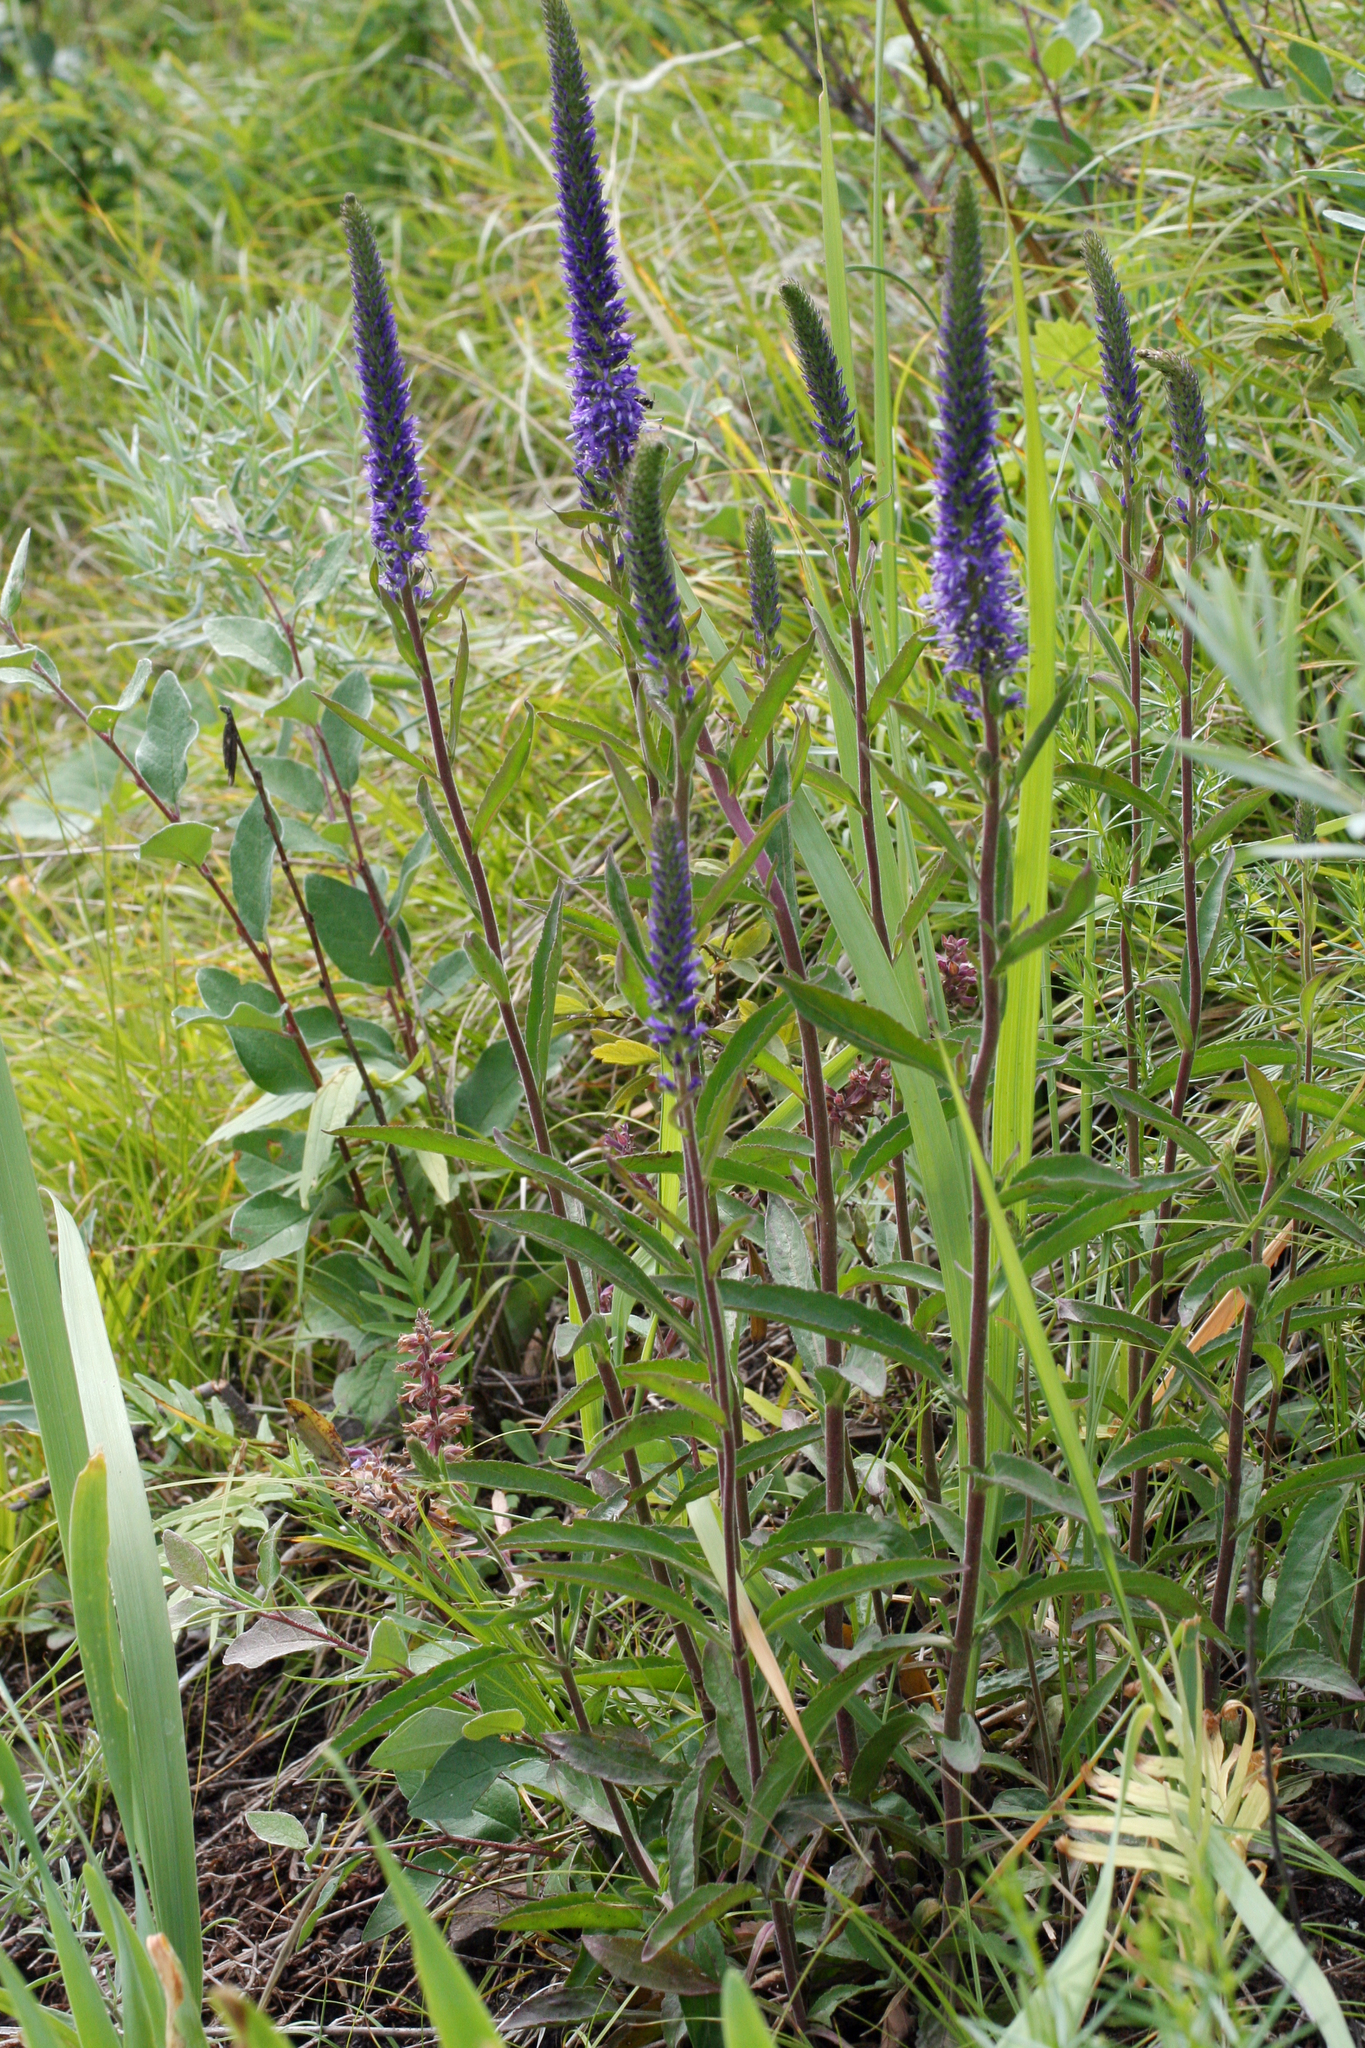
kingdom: Plantae
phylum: Tracheophyta
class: Magnoliopsida
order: Lamiales
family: Plantaginaceae
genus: Veronica
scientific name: Veronica spicata
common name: Spiked speedwell
